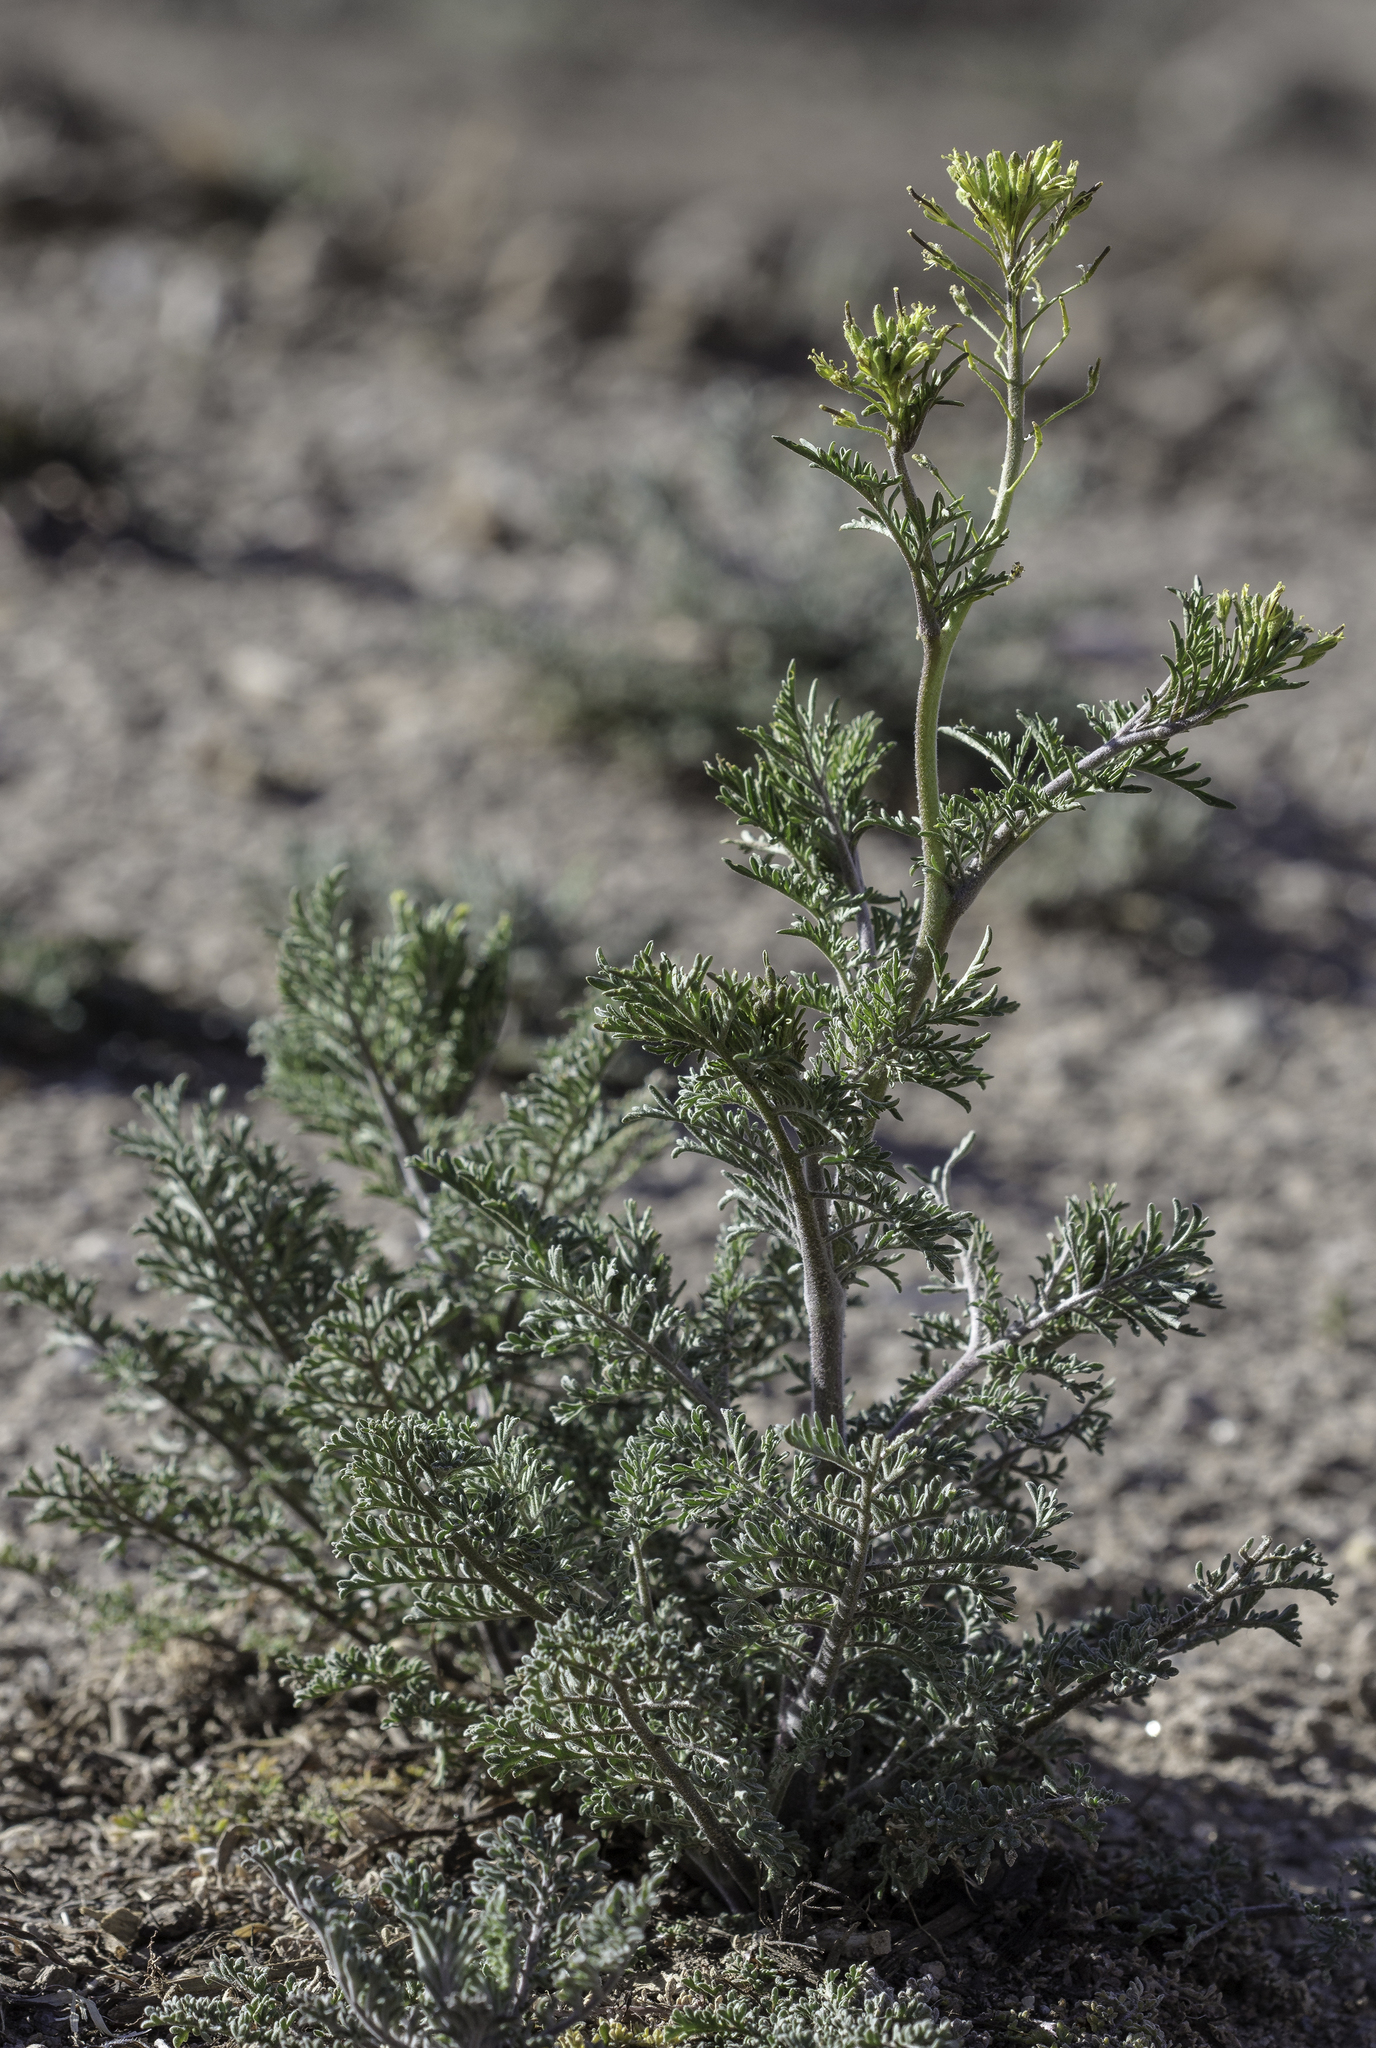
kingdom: Plantae
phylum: Tracheophyta
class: Magnoliopsida
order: Brassicales
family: Brassicaceae
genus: Descurainia
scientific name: Descurainia sophia
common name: Flixweed
